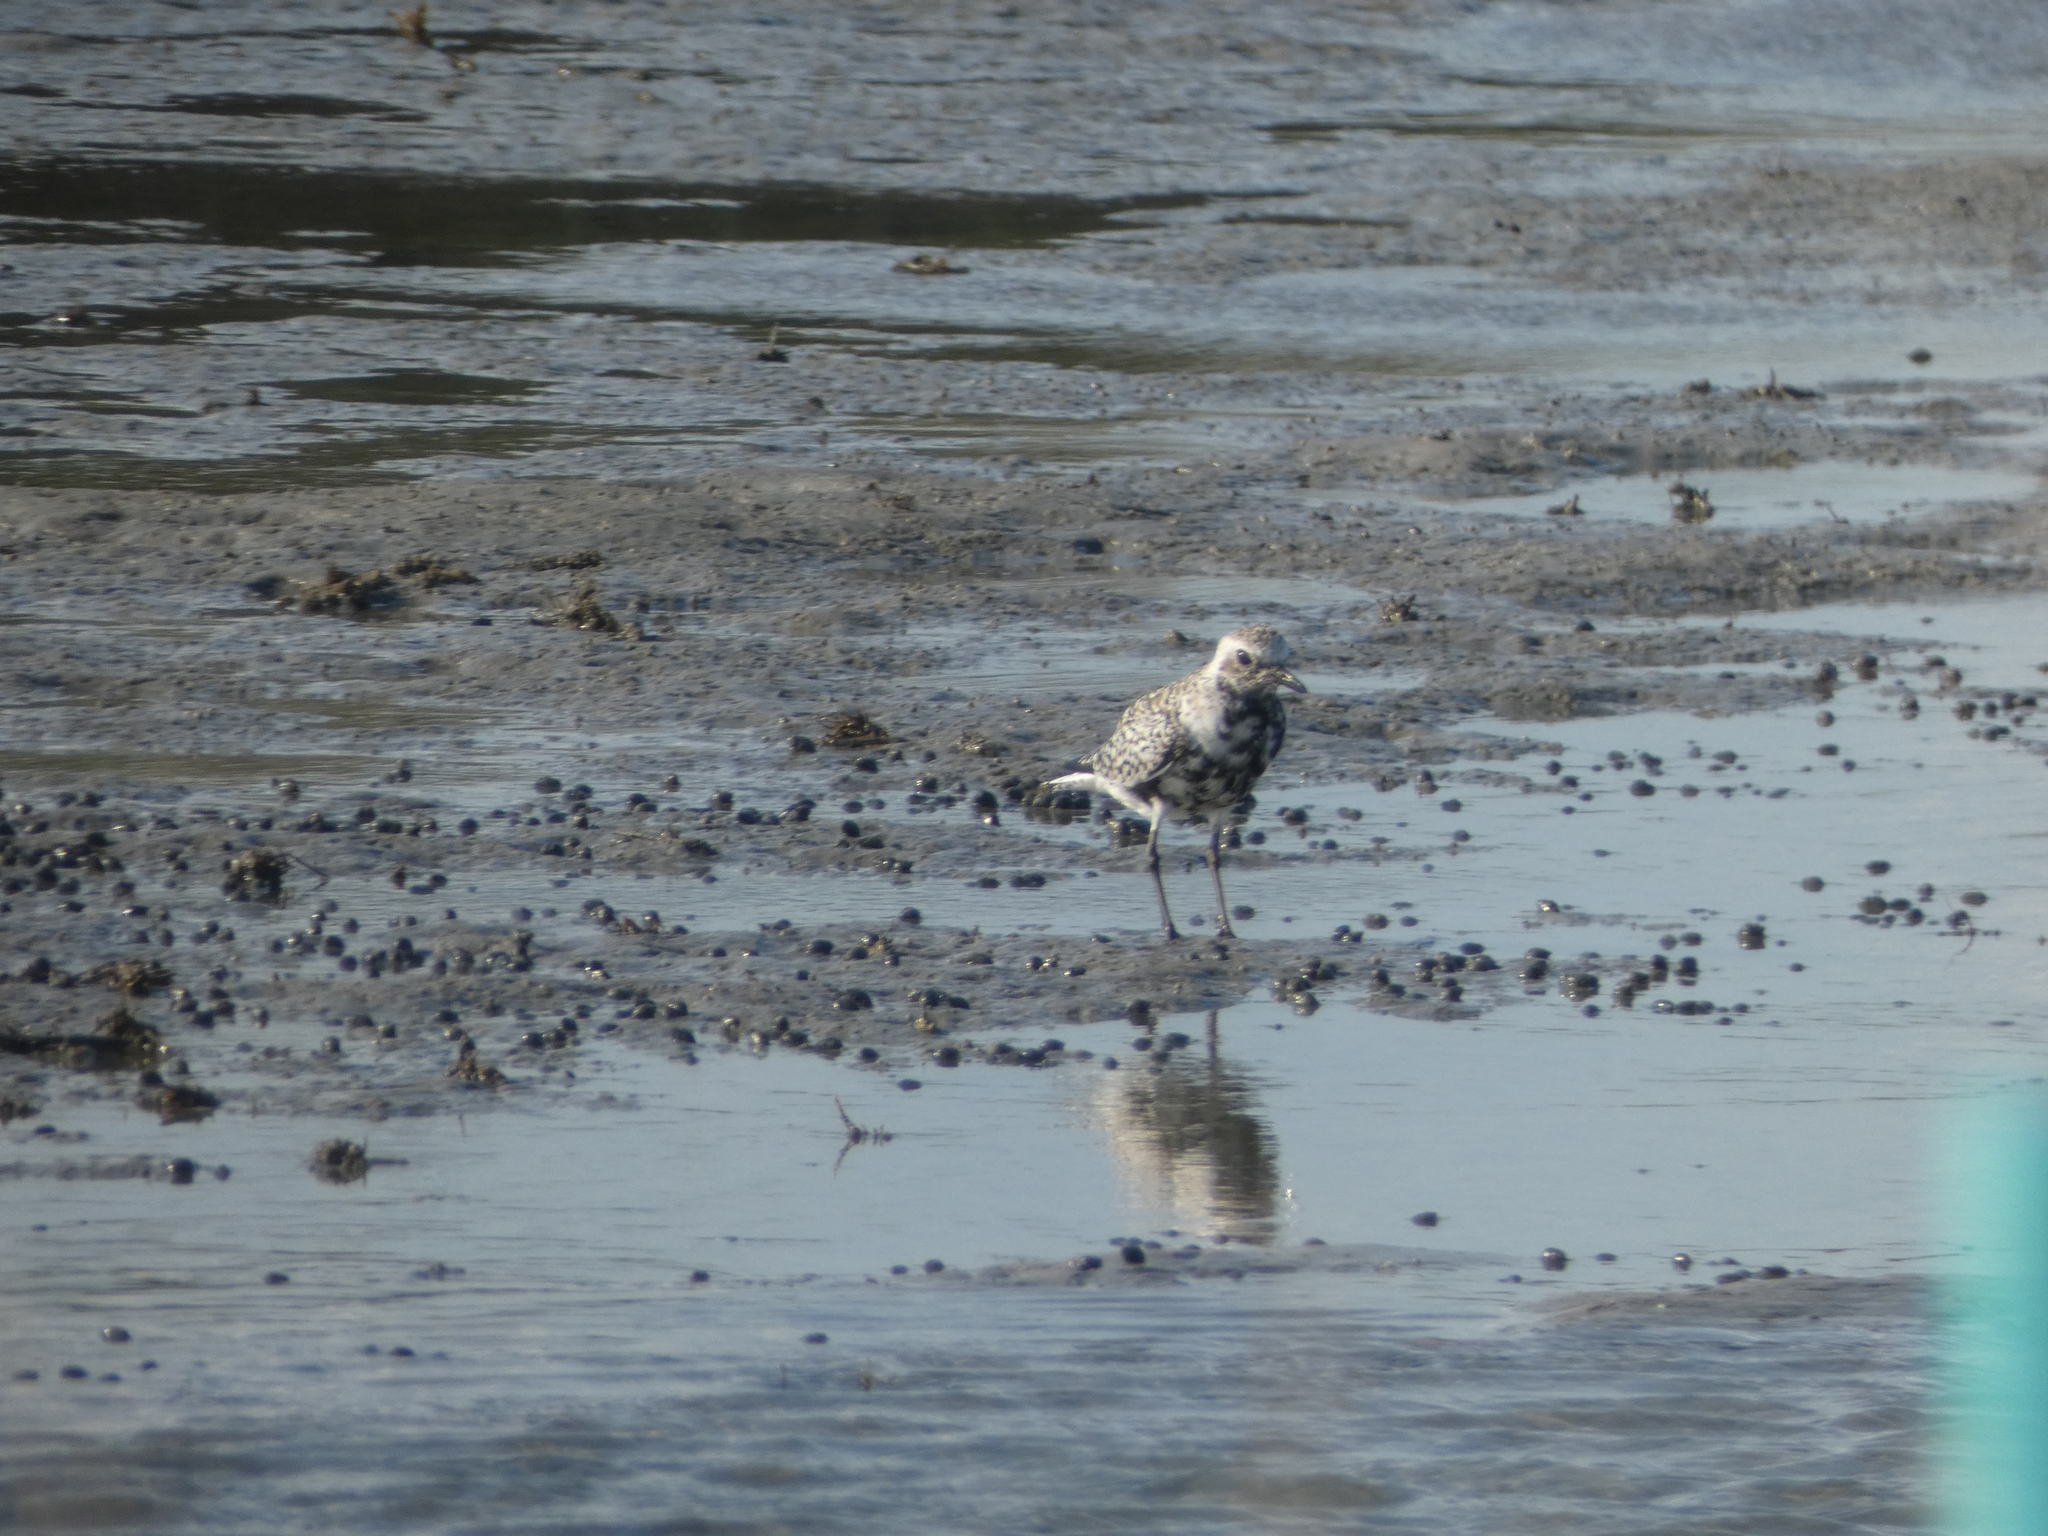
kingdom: Animalia
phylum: Chordata
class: Aves
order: Charadriiformes
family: Charadriidae
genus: Pluvialis
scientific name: Pluvialis squatarola
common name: Grey plover
